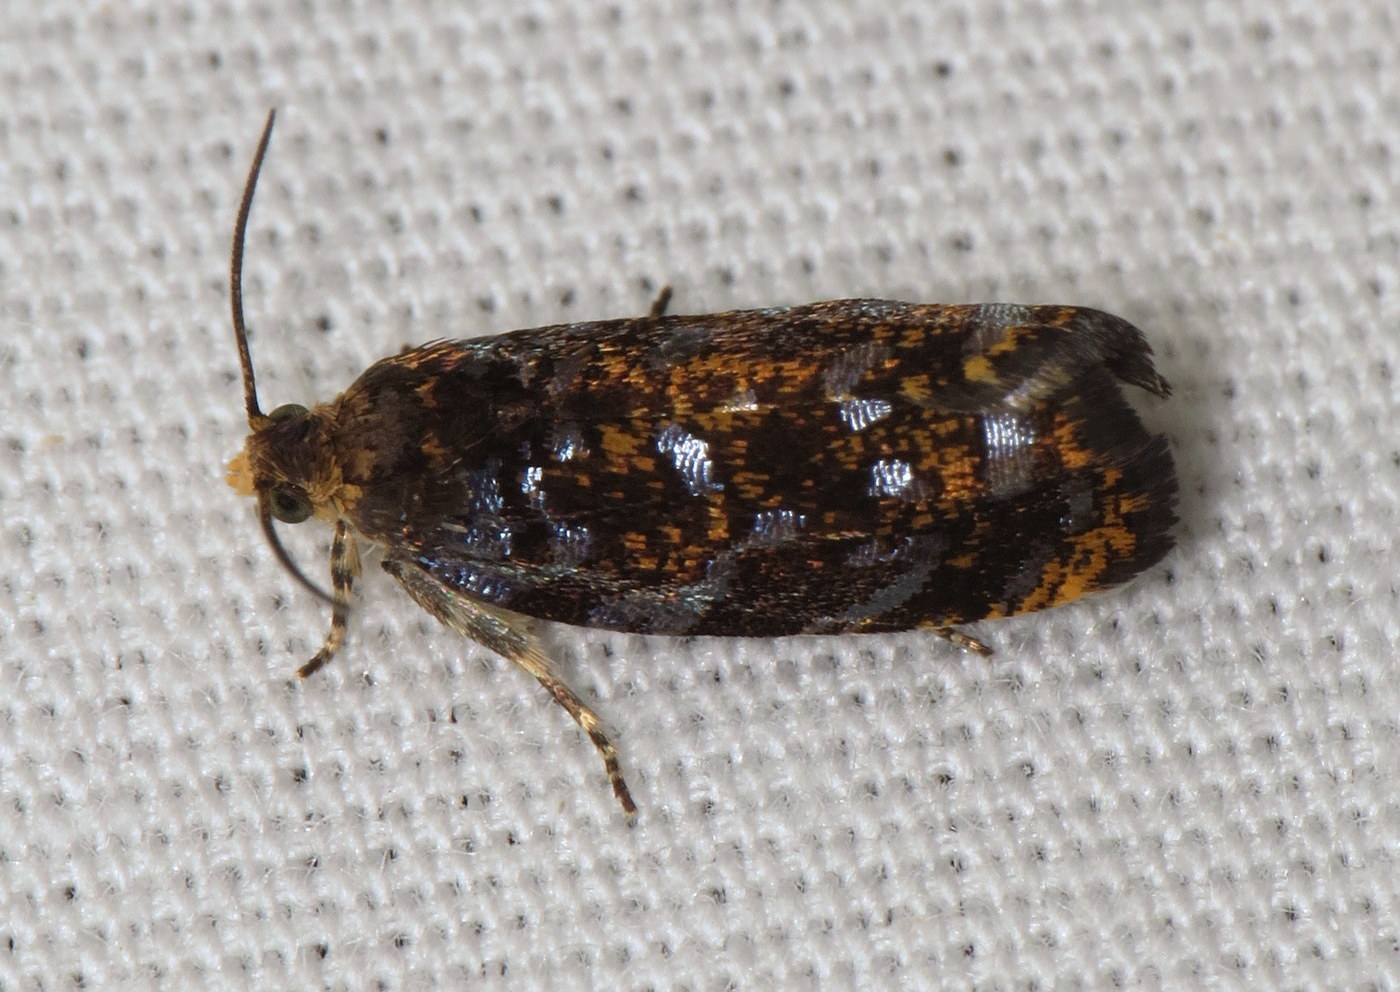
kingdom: Animalia
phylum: Arthropoda
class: Insecta
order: Lepidoptera
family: Tortricidae
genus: Pristerognatha
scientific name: Pristerognatha agilana
